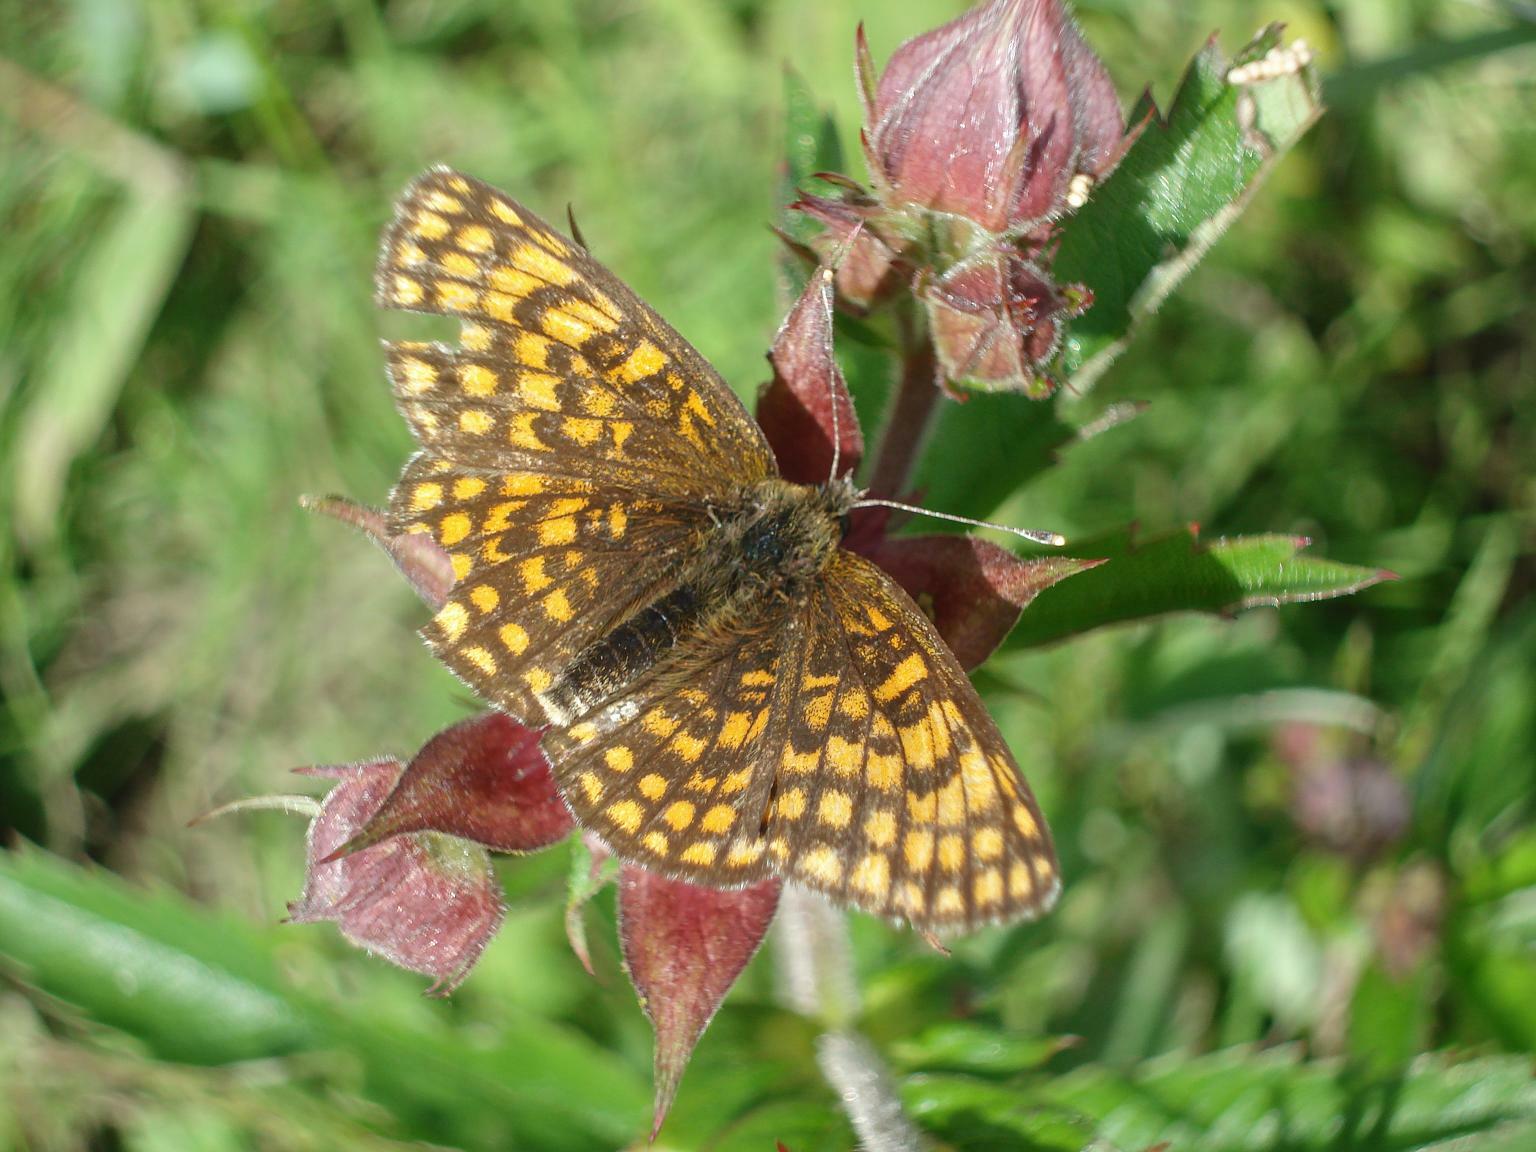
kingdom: Animalia
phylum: Arthropoda
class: Insecta
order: Lepidoptera
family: Nymphalidae
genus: Melitaea
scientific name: Melitaea athalia
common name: Heath fritillary
